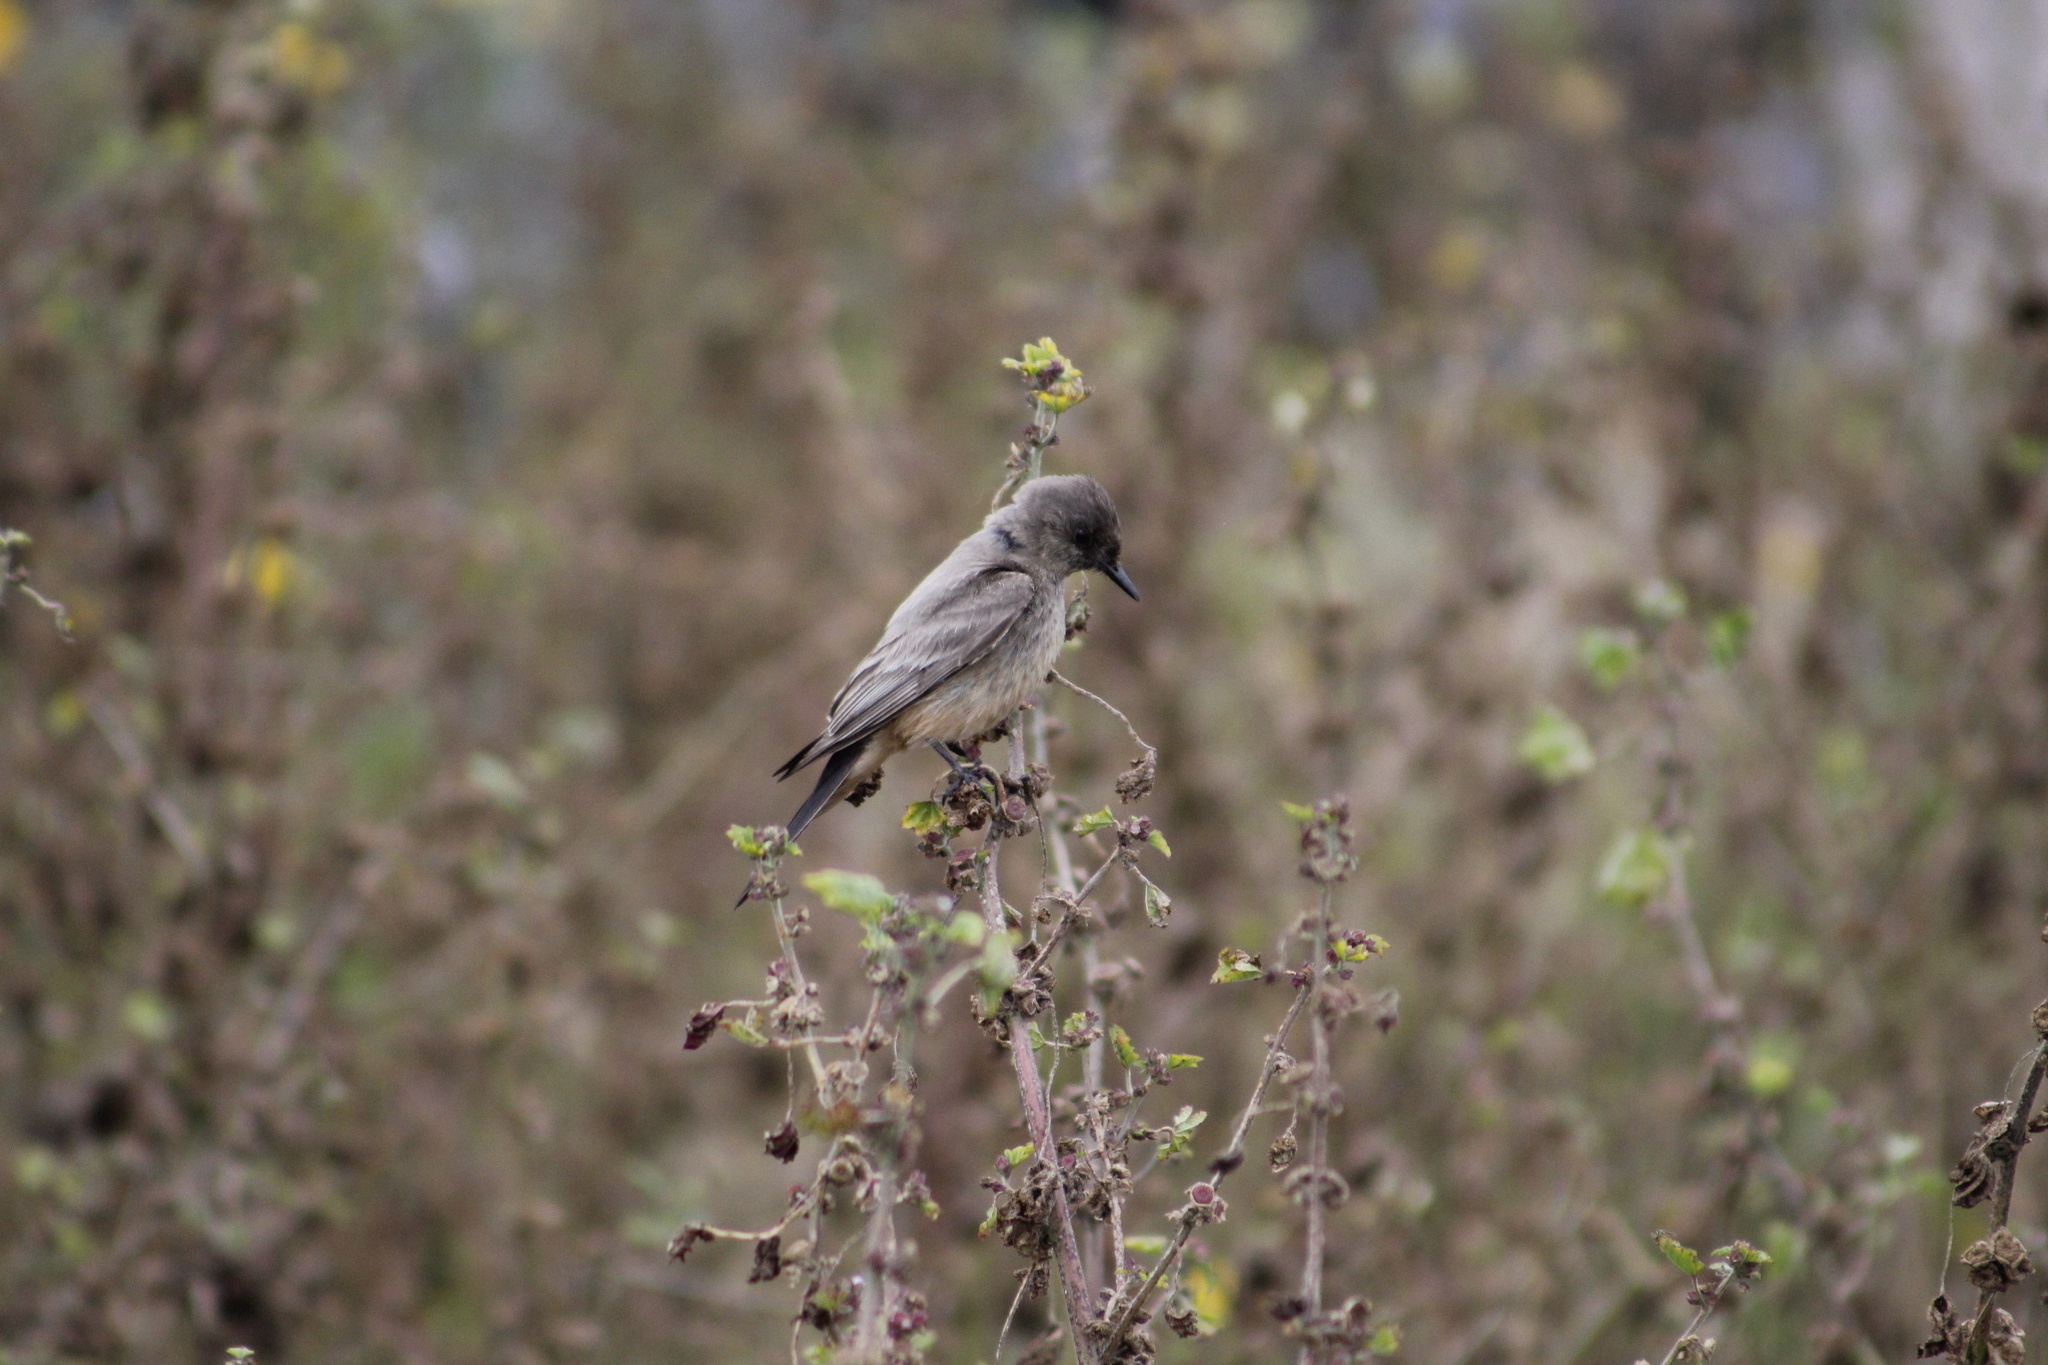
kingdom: Animalia
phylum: Chordata
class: Aves
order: Passeriformes
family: Tyrannidae
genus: Sayornis
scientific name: Sayornis saya
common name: Say's phoebe
